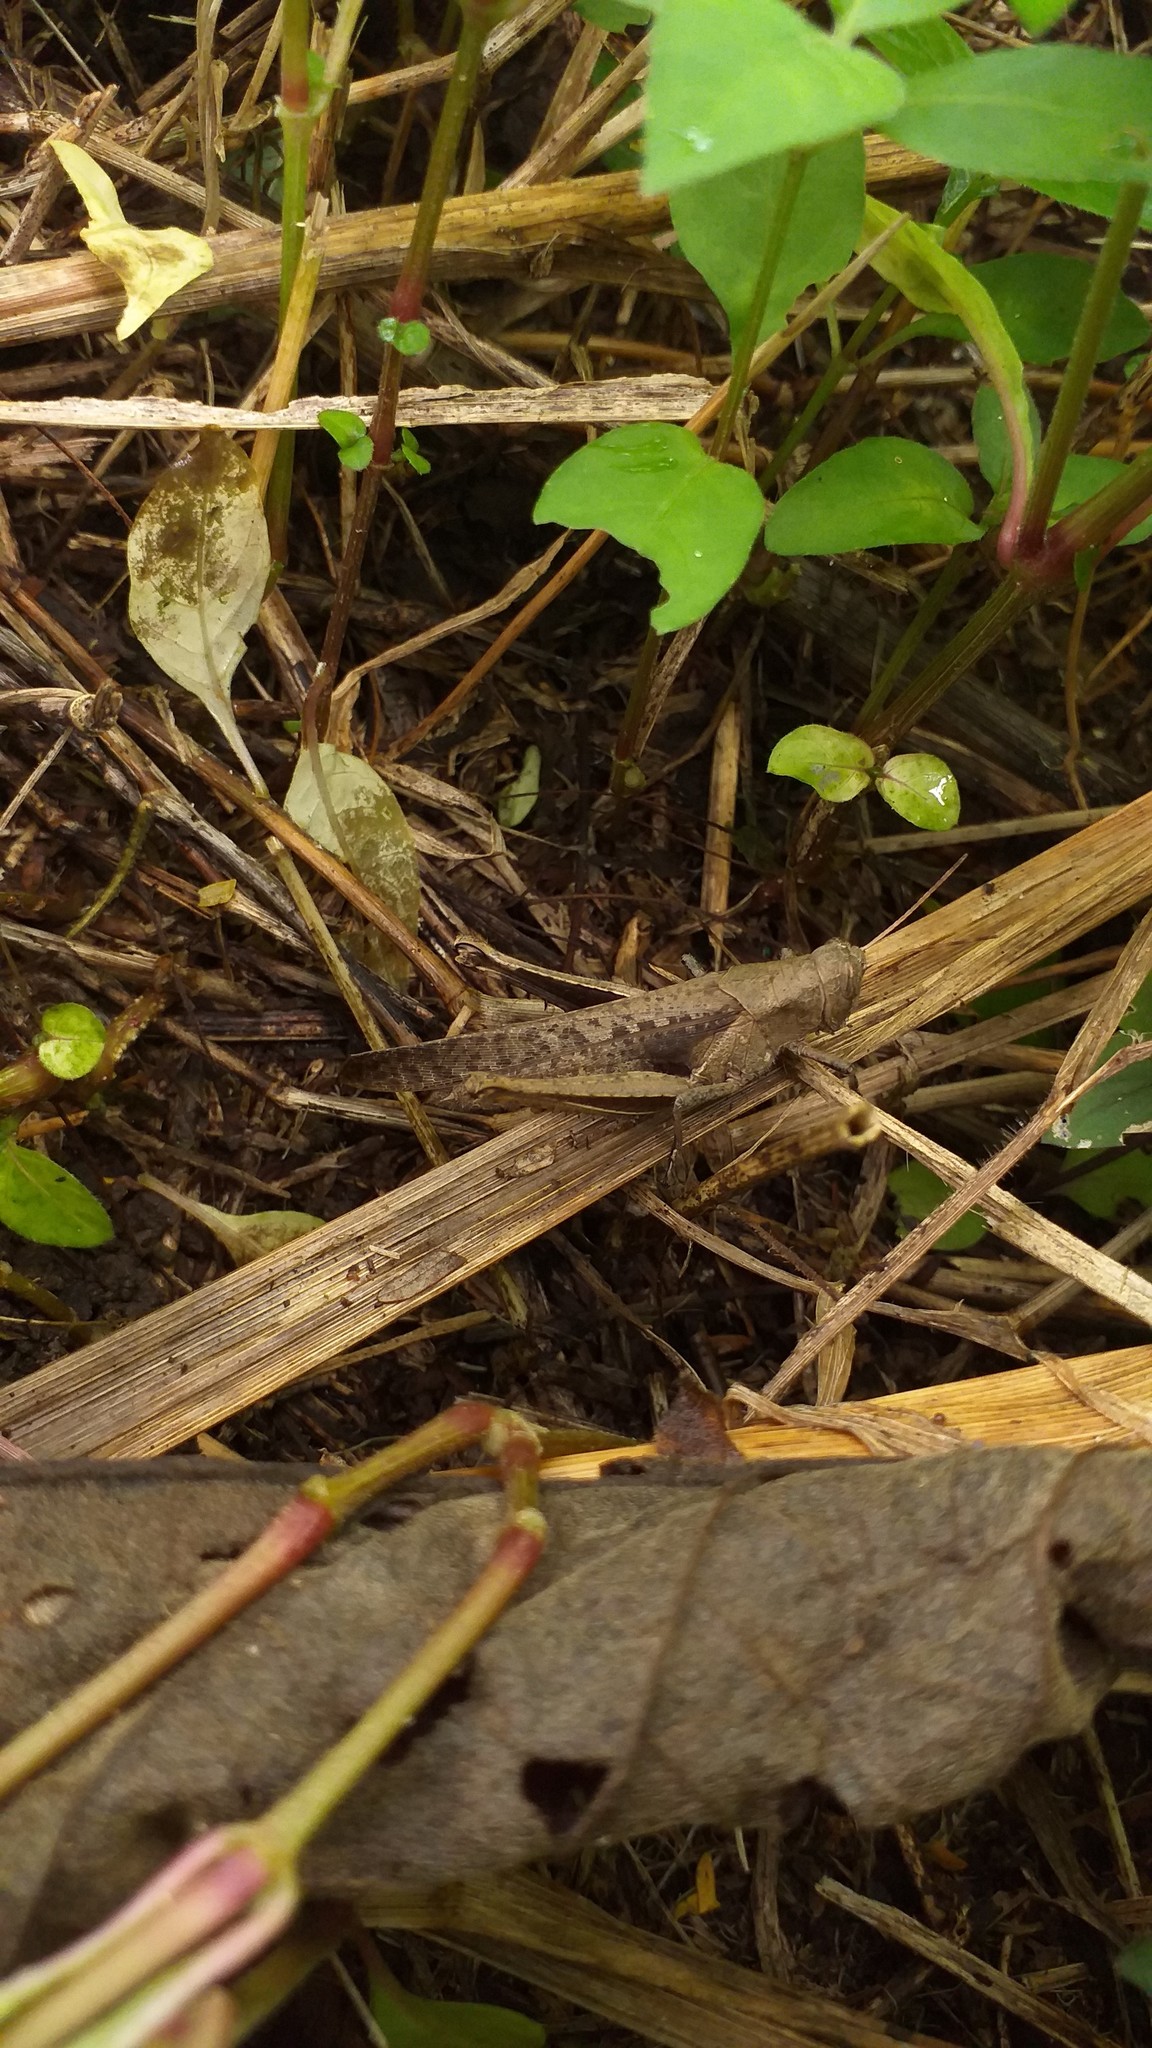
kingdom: Animalia
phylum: Arthropoda
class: Insecta
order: Orthoptera
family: Acrididae
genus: Abracris
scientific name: Abracris flavolineata
